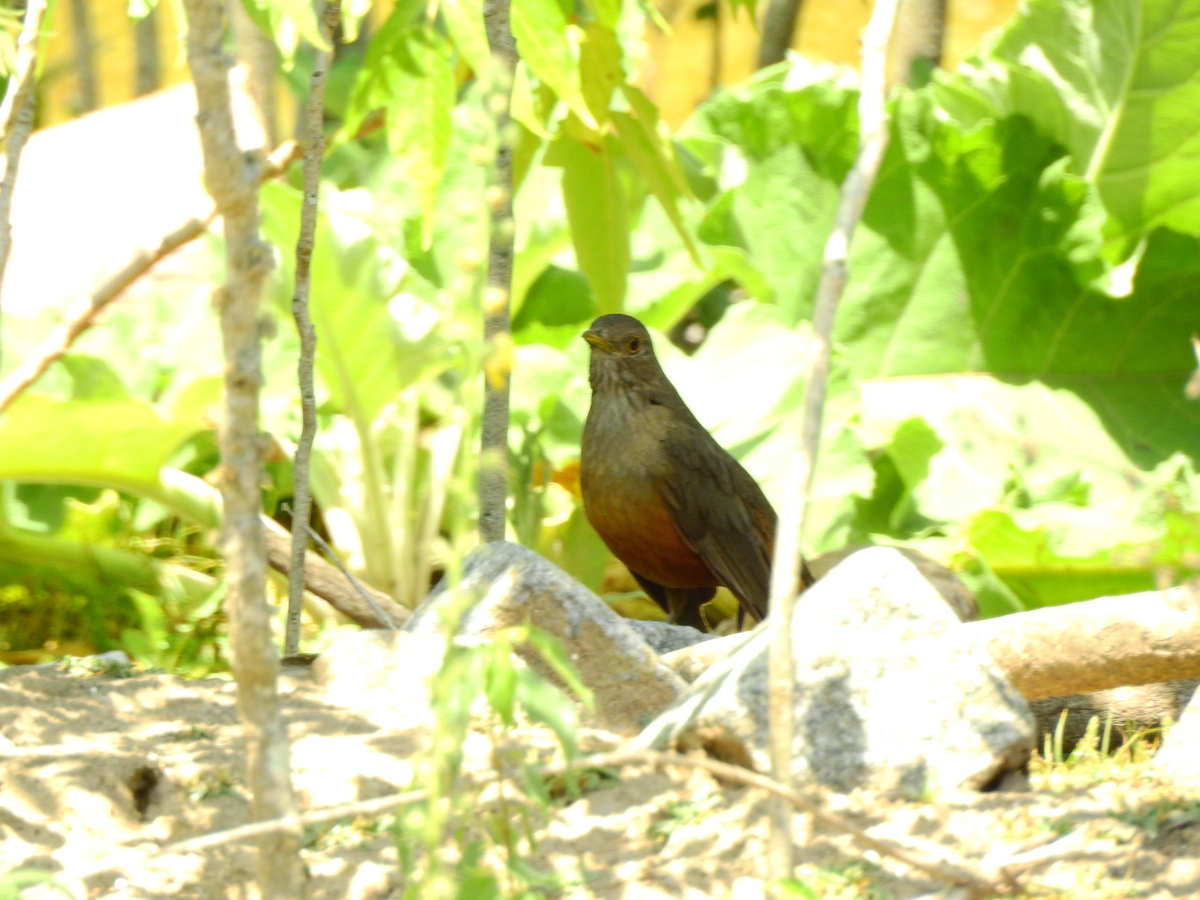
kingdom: Animalia
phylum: Chordata
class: Aves
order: Passeriformes
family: Turdidae
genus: Turdus
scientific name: Turdus rufiventris
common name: Rufous-bellied thrush
